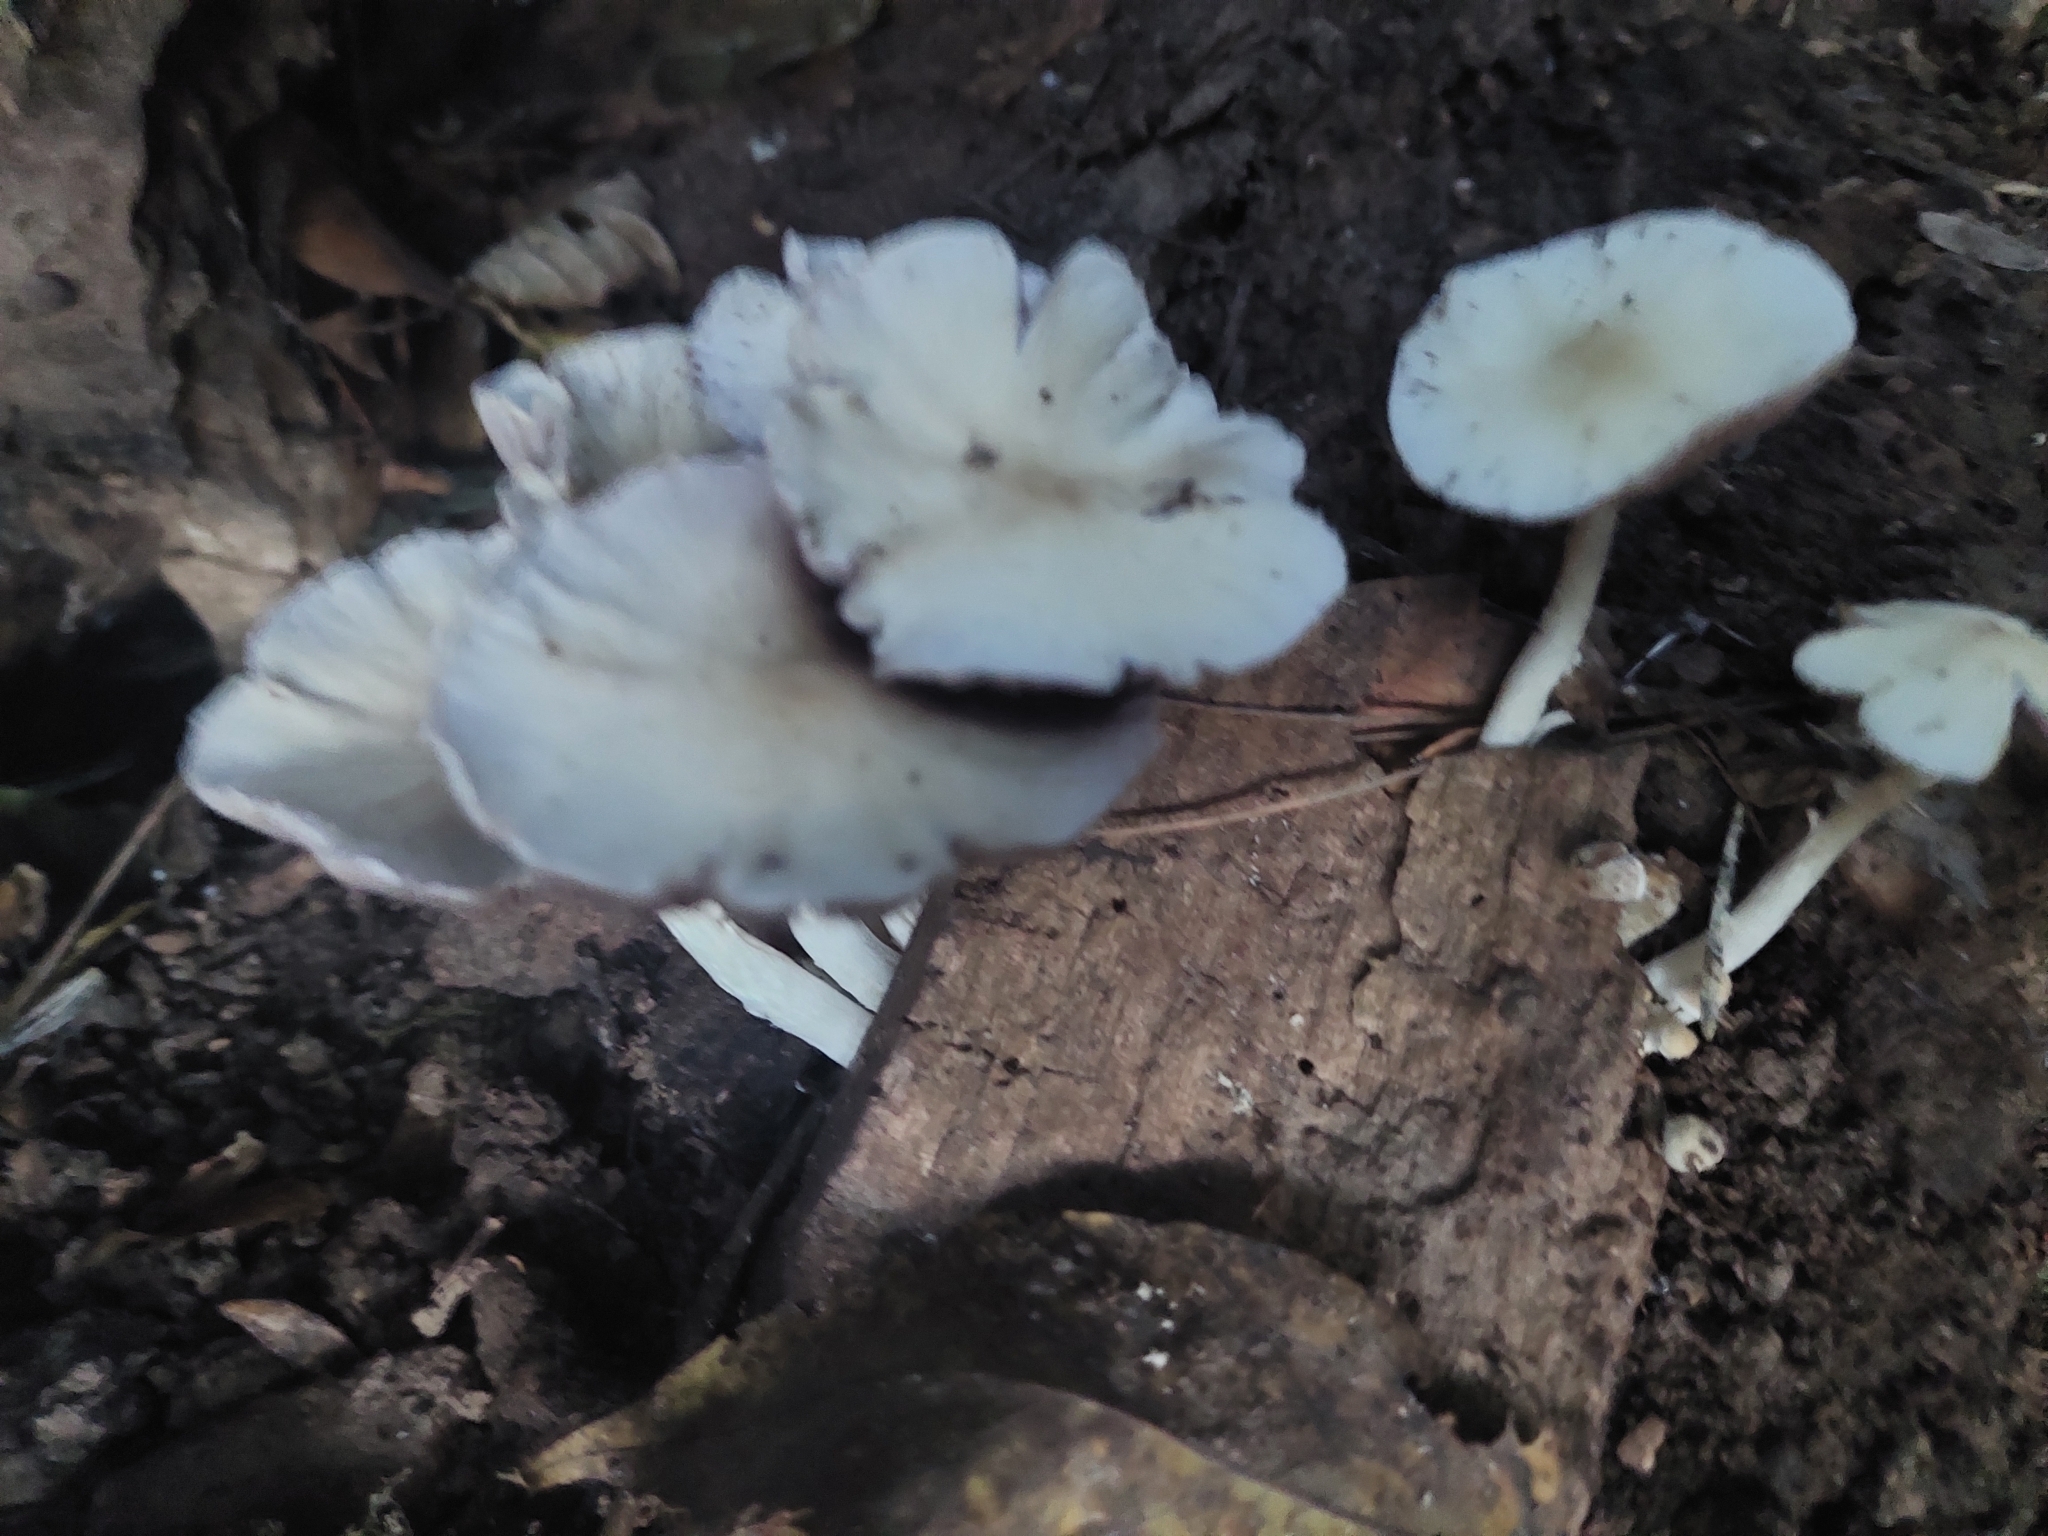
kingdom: Fungi
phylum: Basidiomycota
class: Agaricomycetes
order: Agaricales
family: Psathyrellaceae
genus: Candolleomyces
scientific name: Candolleomyces candolleanus
